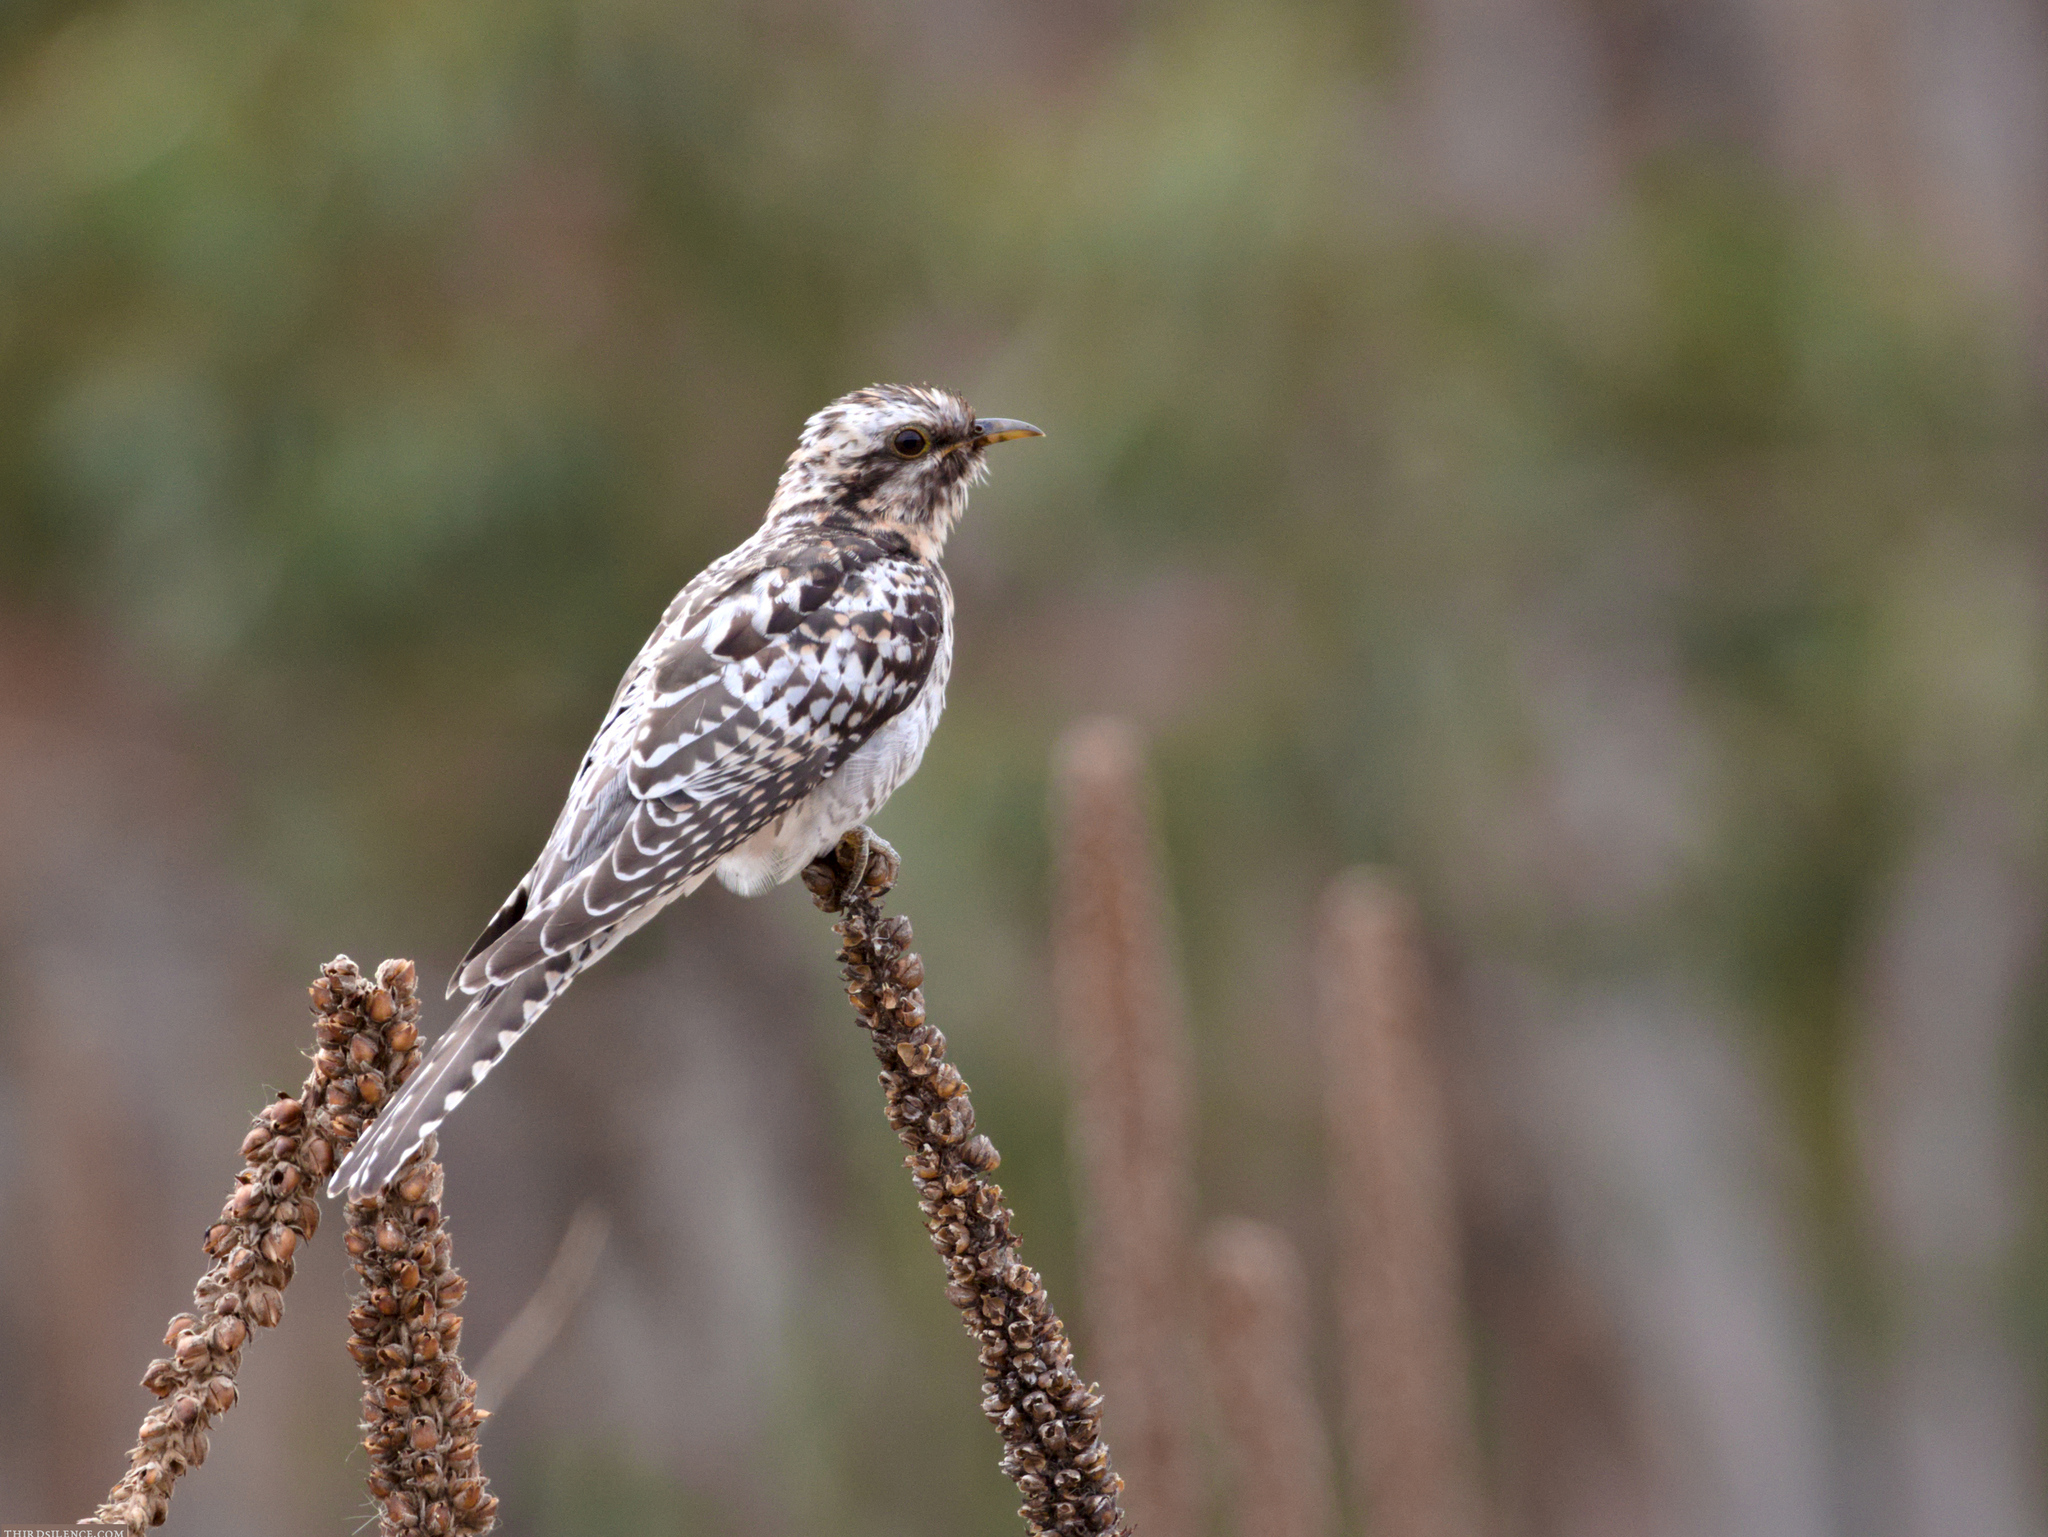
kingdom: Animalia
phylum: Chordata
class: Aves
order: Cuculiformes
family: Cuculidae
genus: Cuculus
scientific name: Cuculus pallidus
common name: Pallid cuckoo
